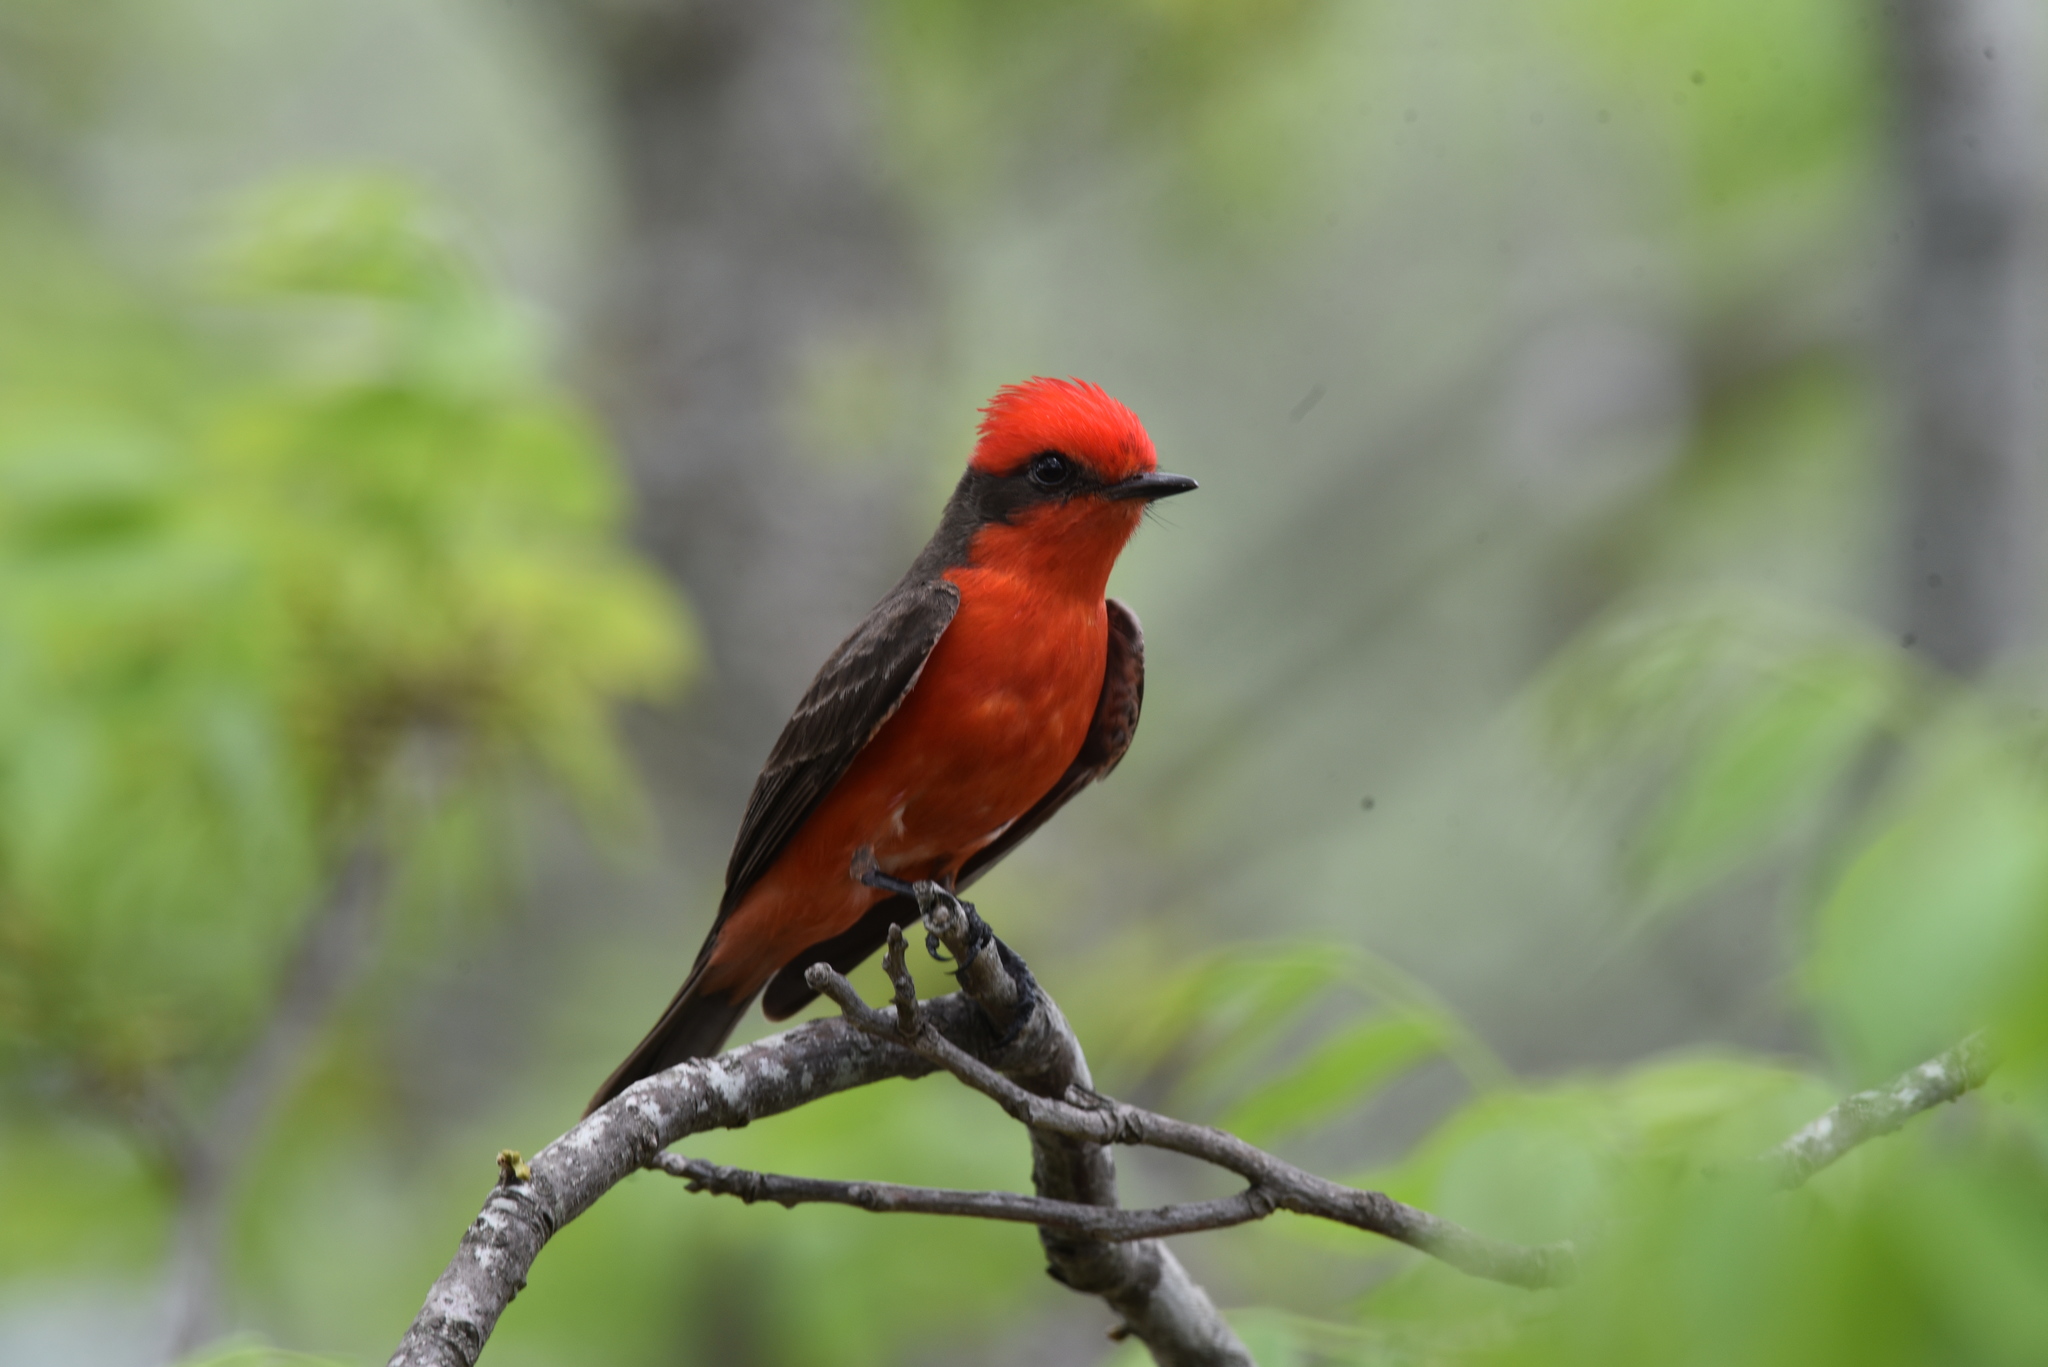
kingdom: Animalia
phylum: Chordata
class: Aves
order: Passeriformes
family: Tyrannidae
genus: Pyrocephalus
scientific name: Pyrocephalus rubinus
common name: Vermilion flycatcher
